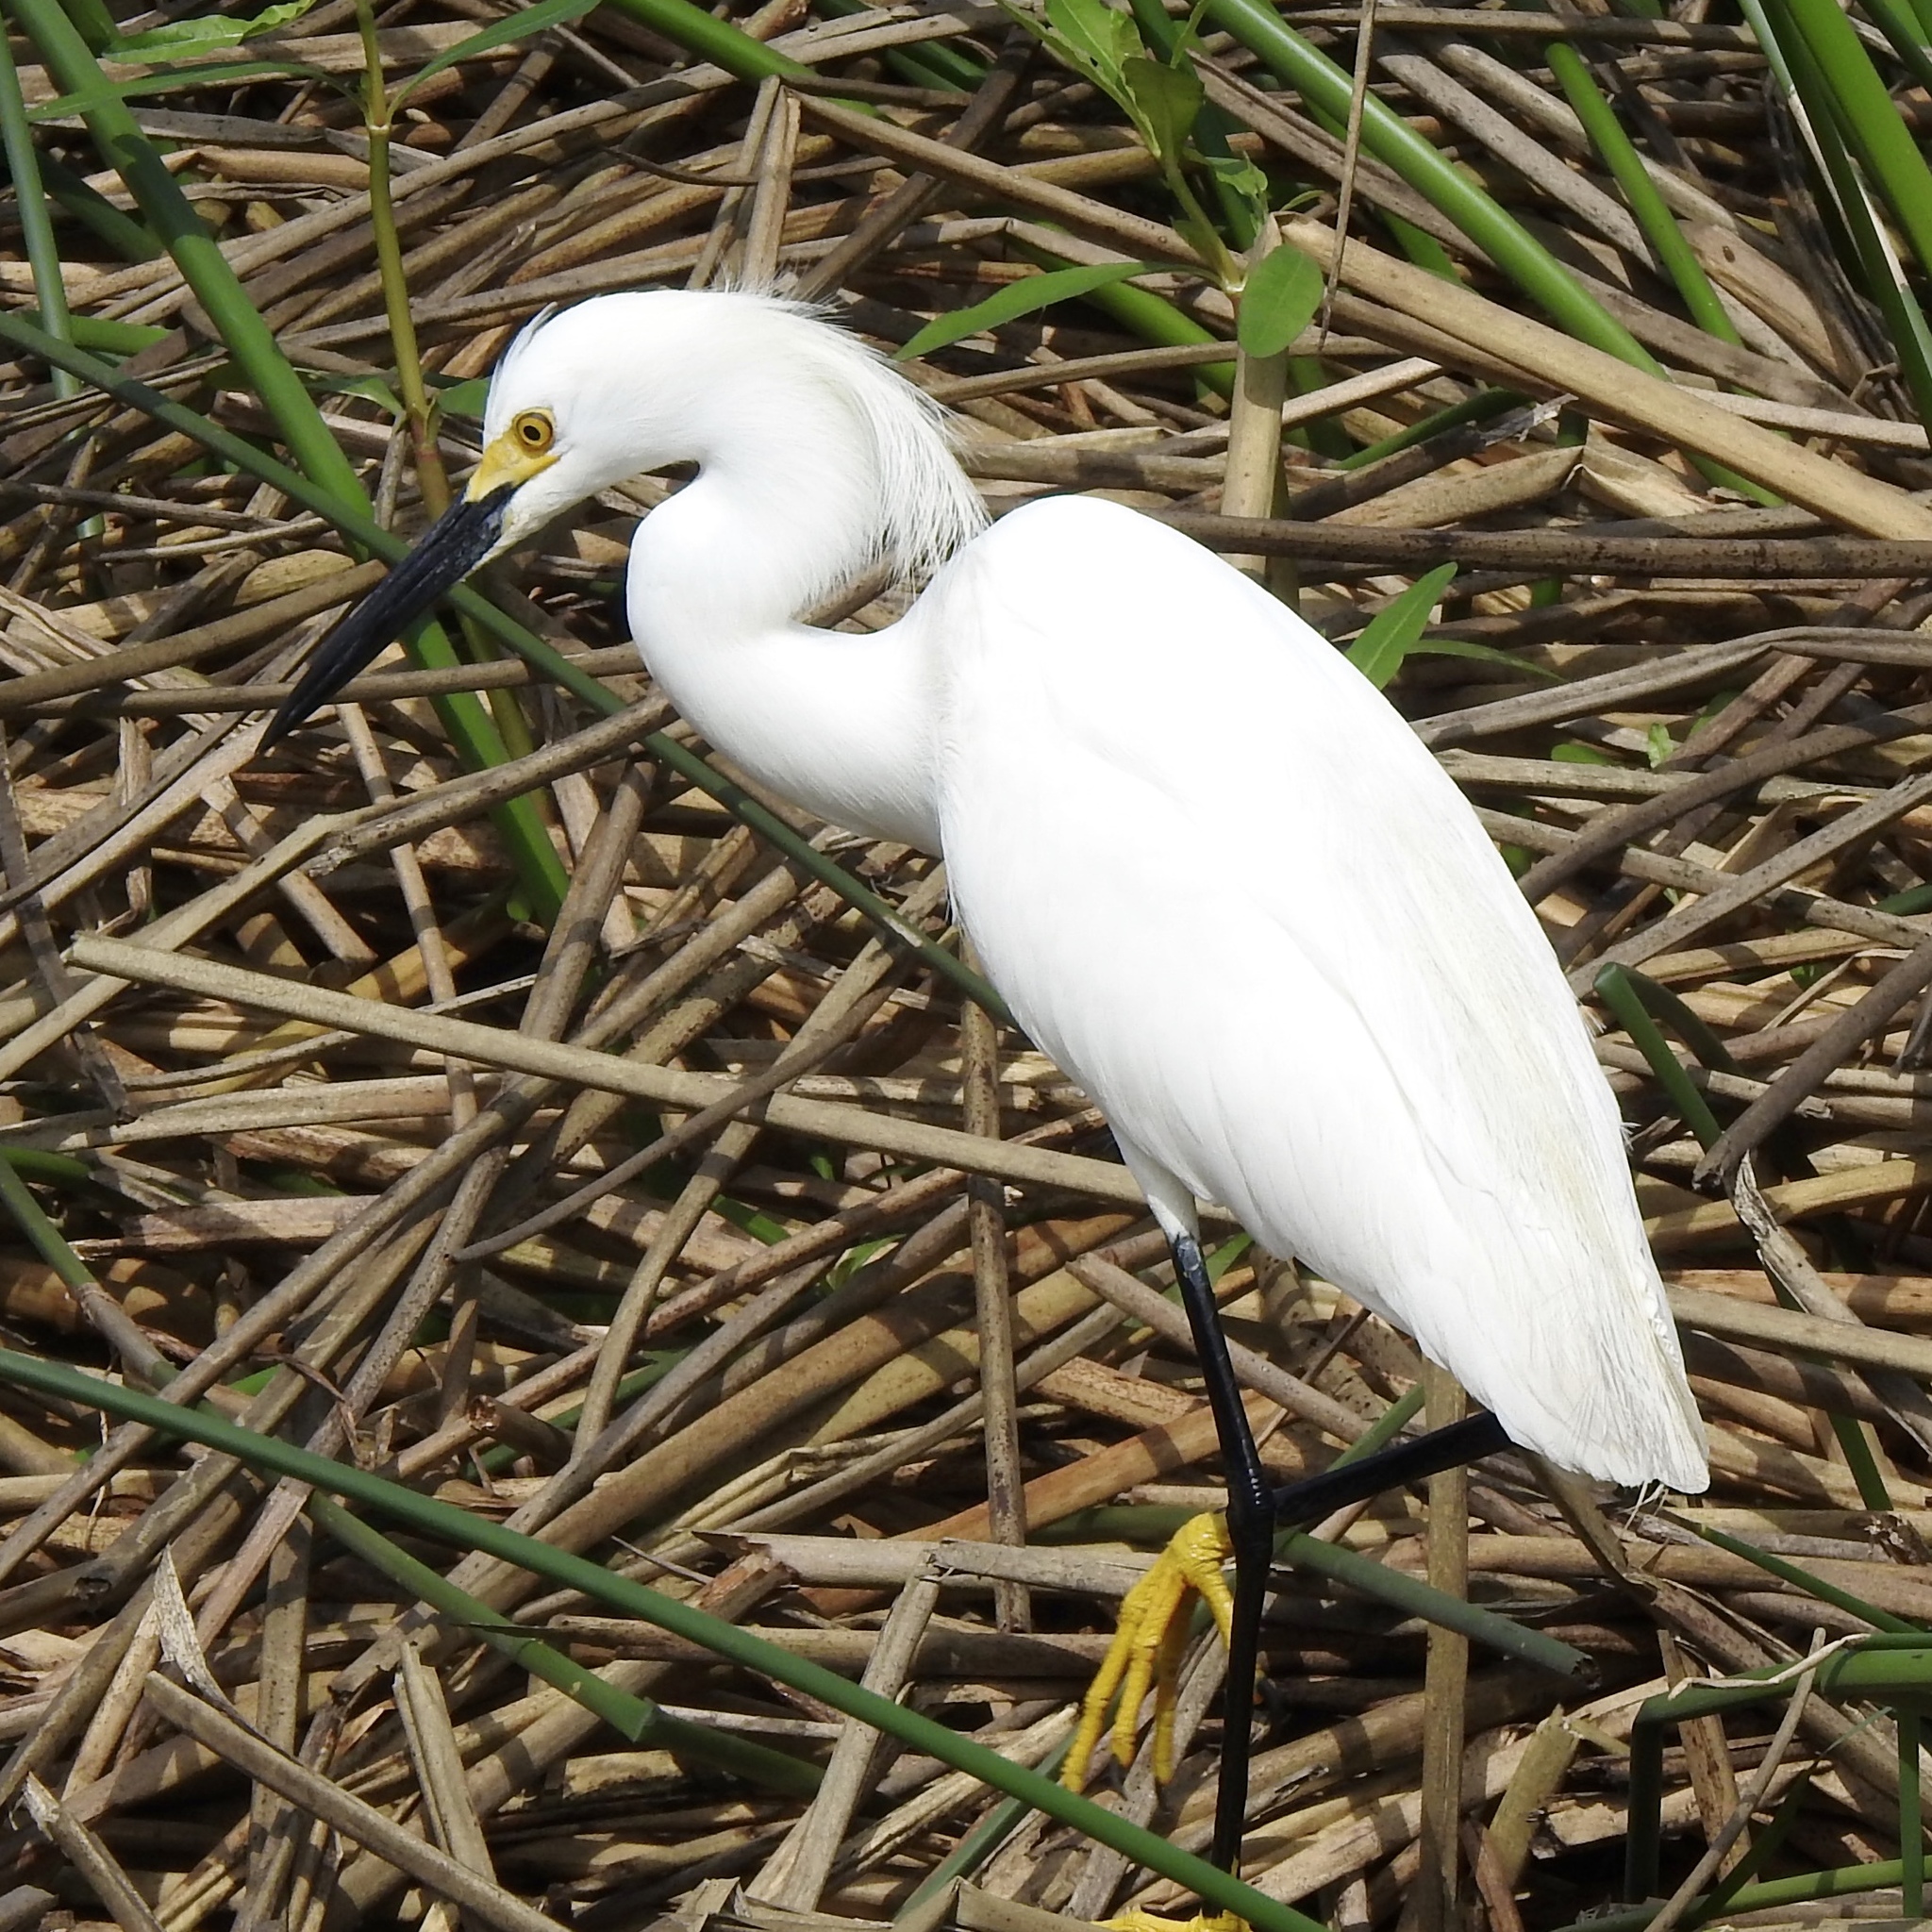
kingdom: Animalia
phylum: Chordata
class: Aves
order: Pelecaniformes
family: Ardeidae
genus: Egretta
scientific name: Egretta thula
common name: Snowy egret
